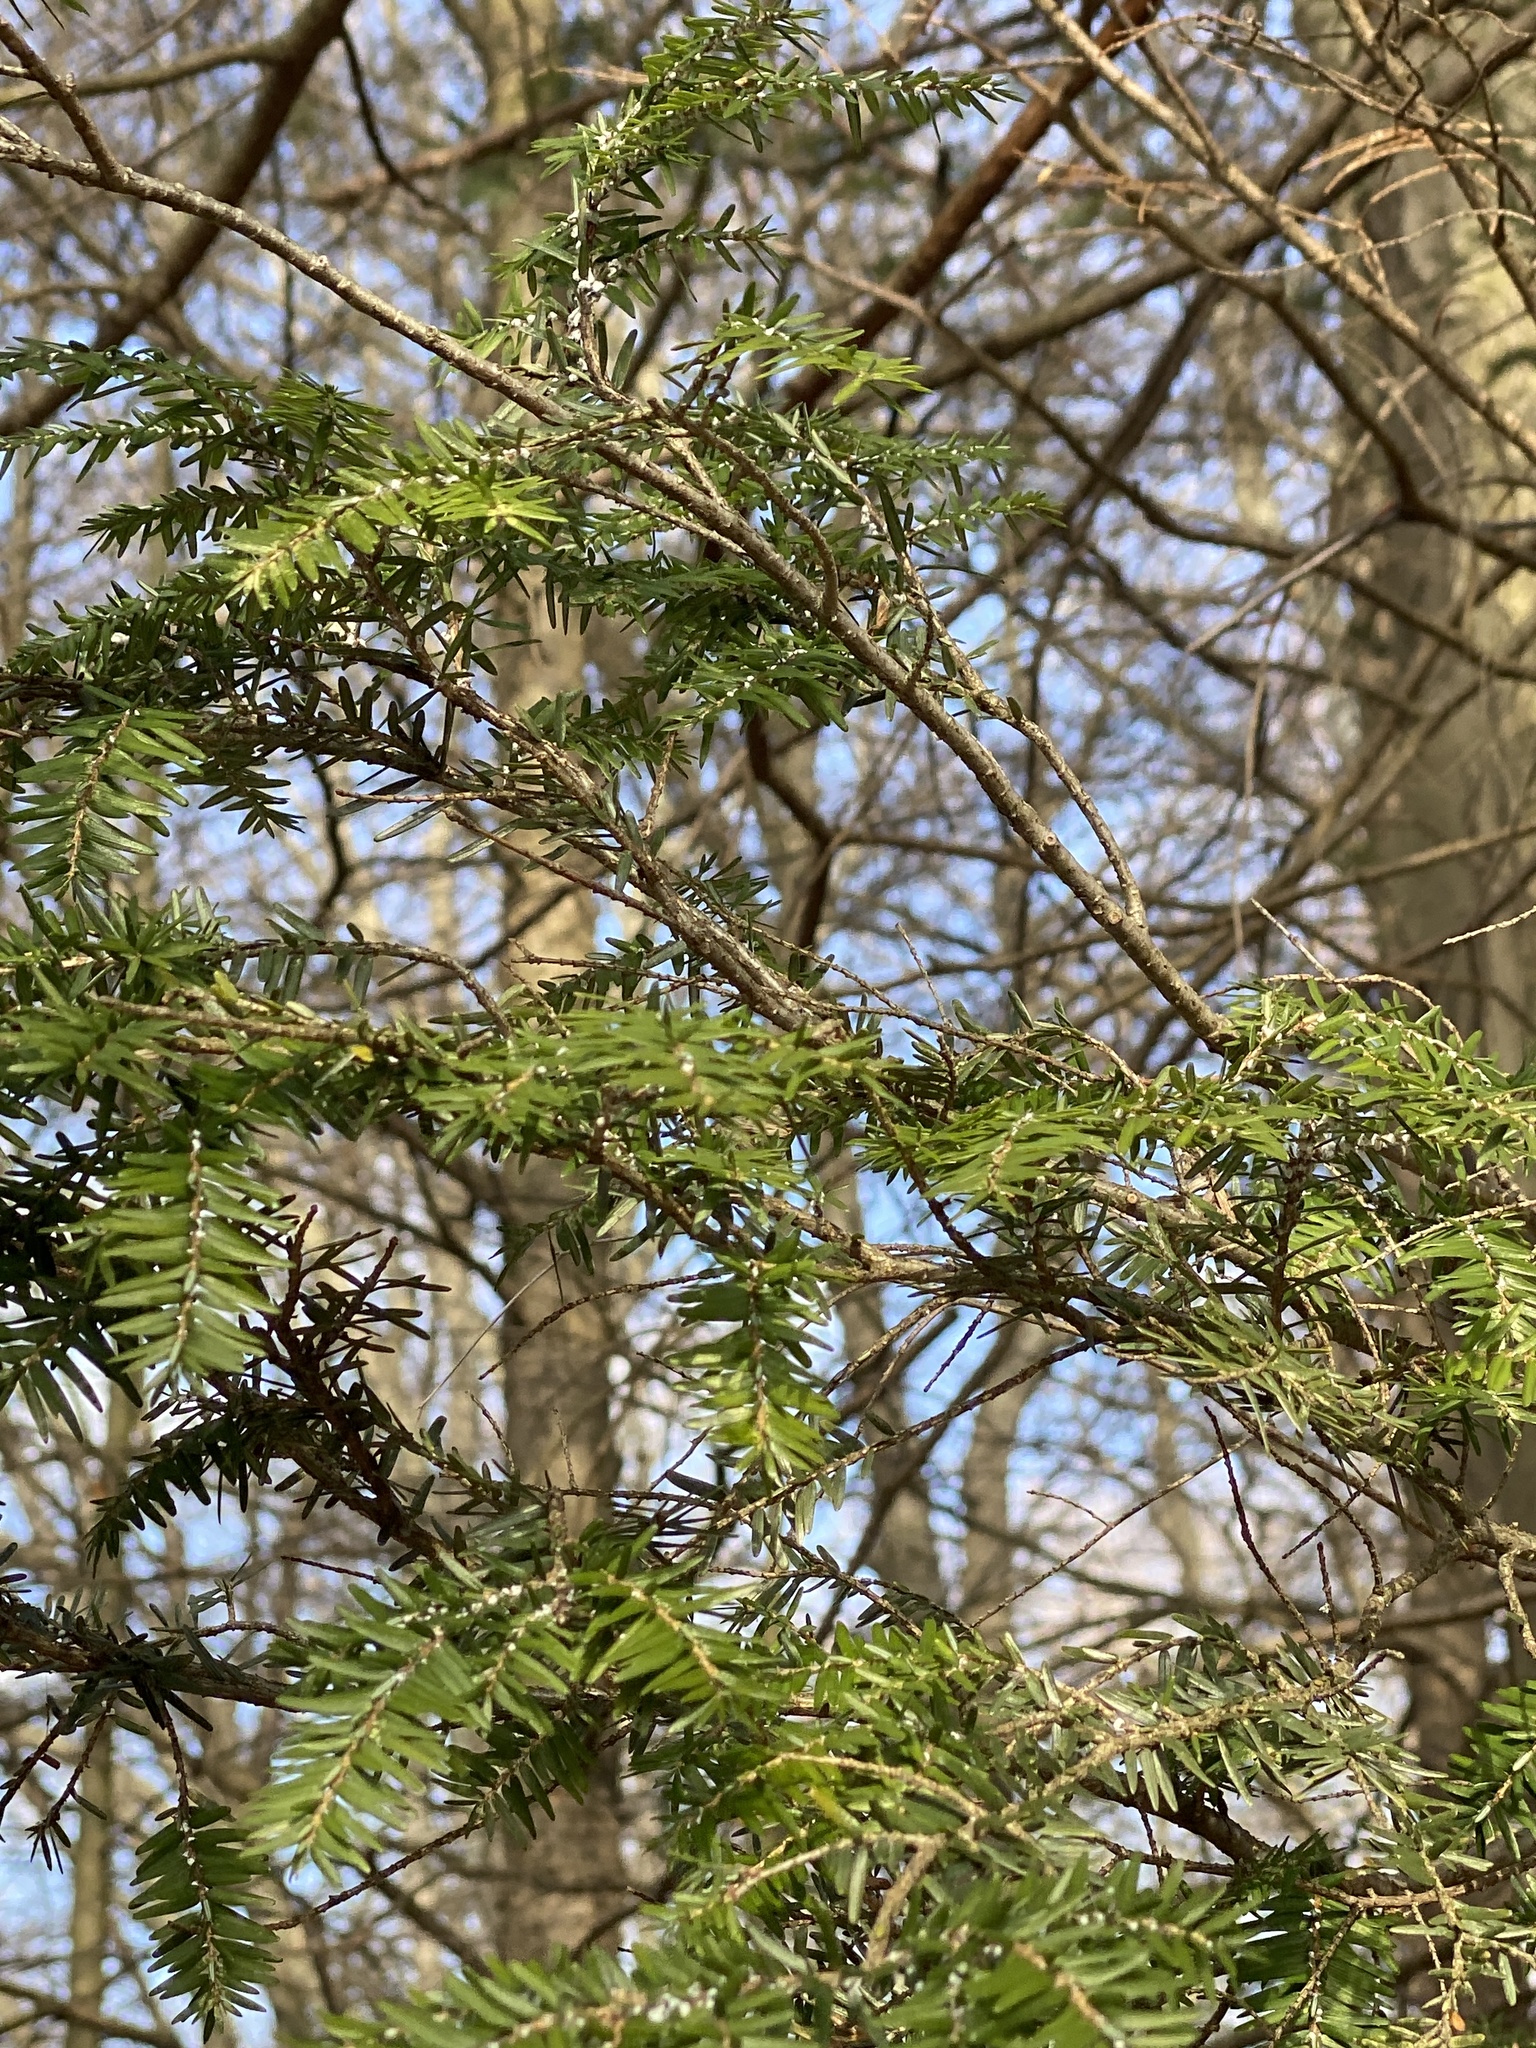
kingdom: Plantae
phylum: Tracheophyta
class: Pinopsida
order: Pinales
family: Pinaceae
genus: Tsuga
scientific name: Tsuga canadensis
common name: Eastern hemlock
